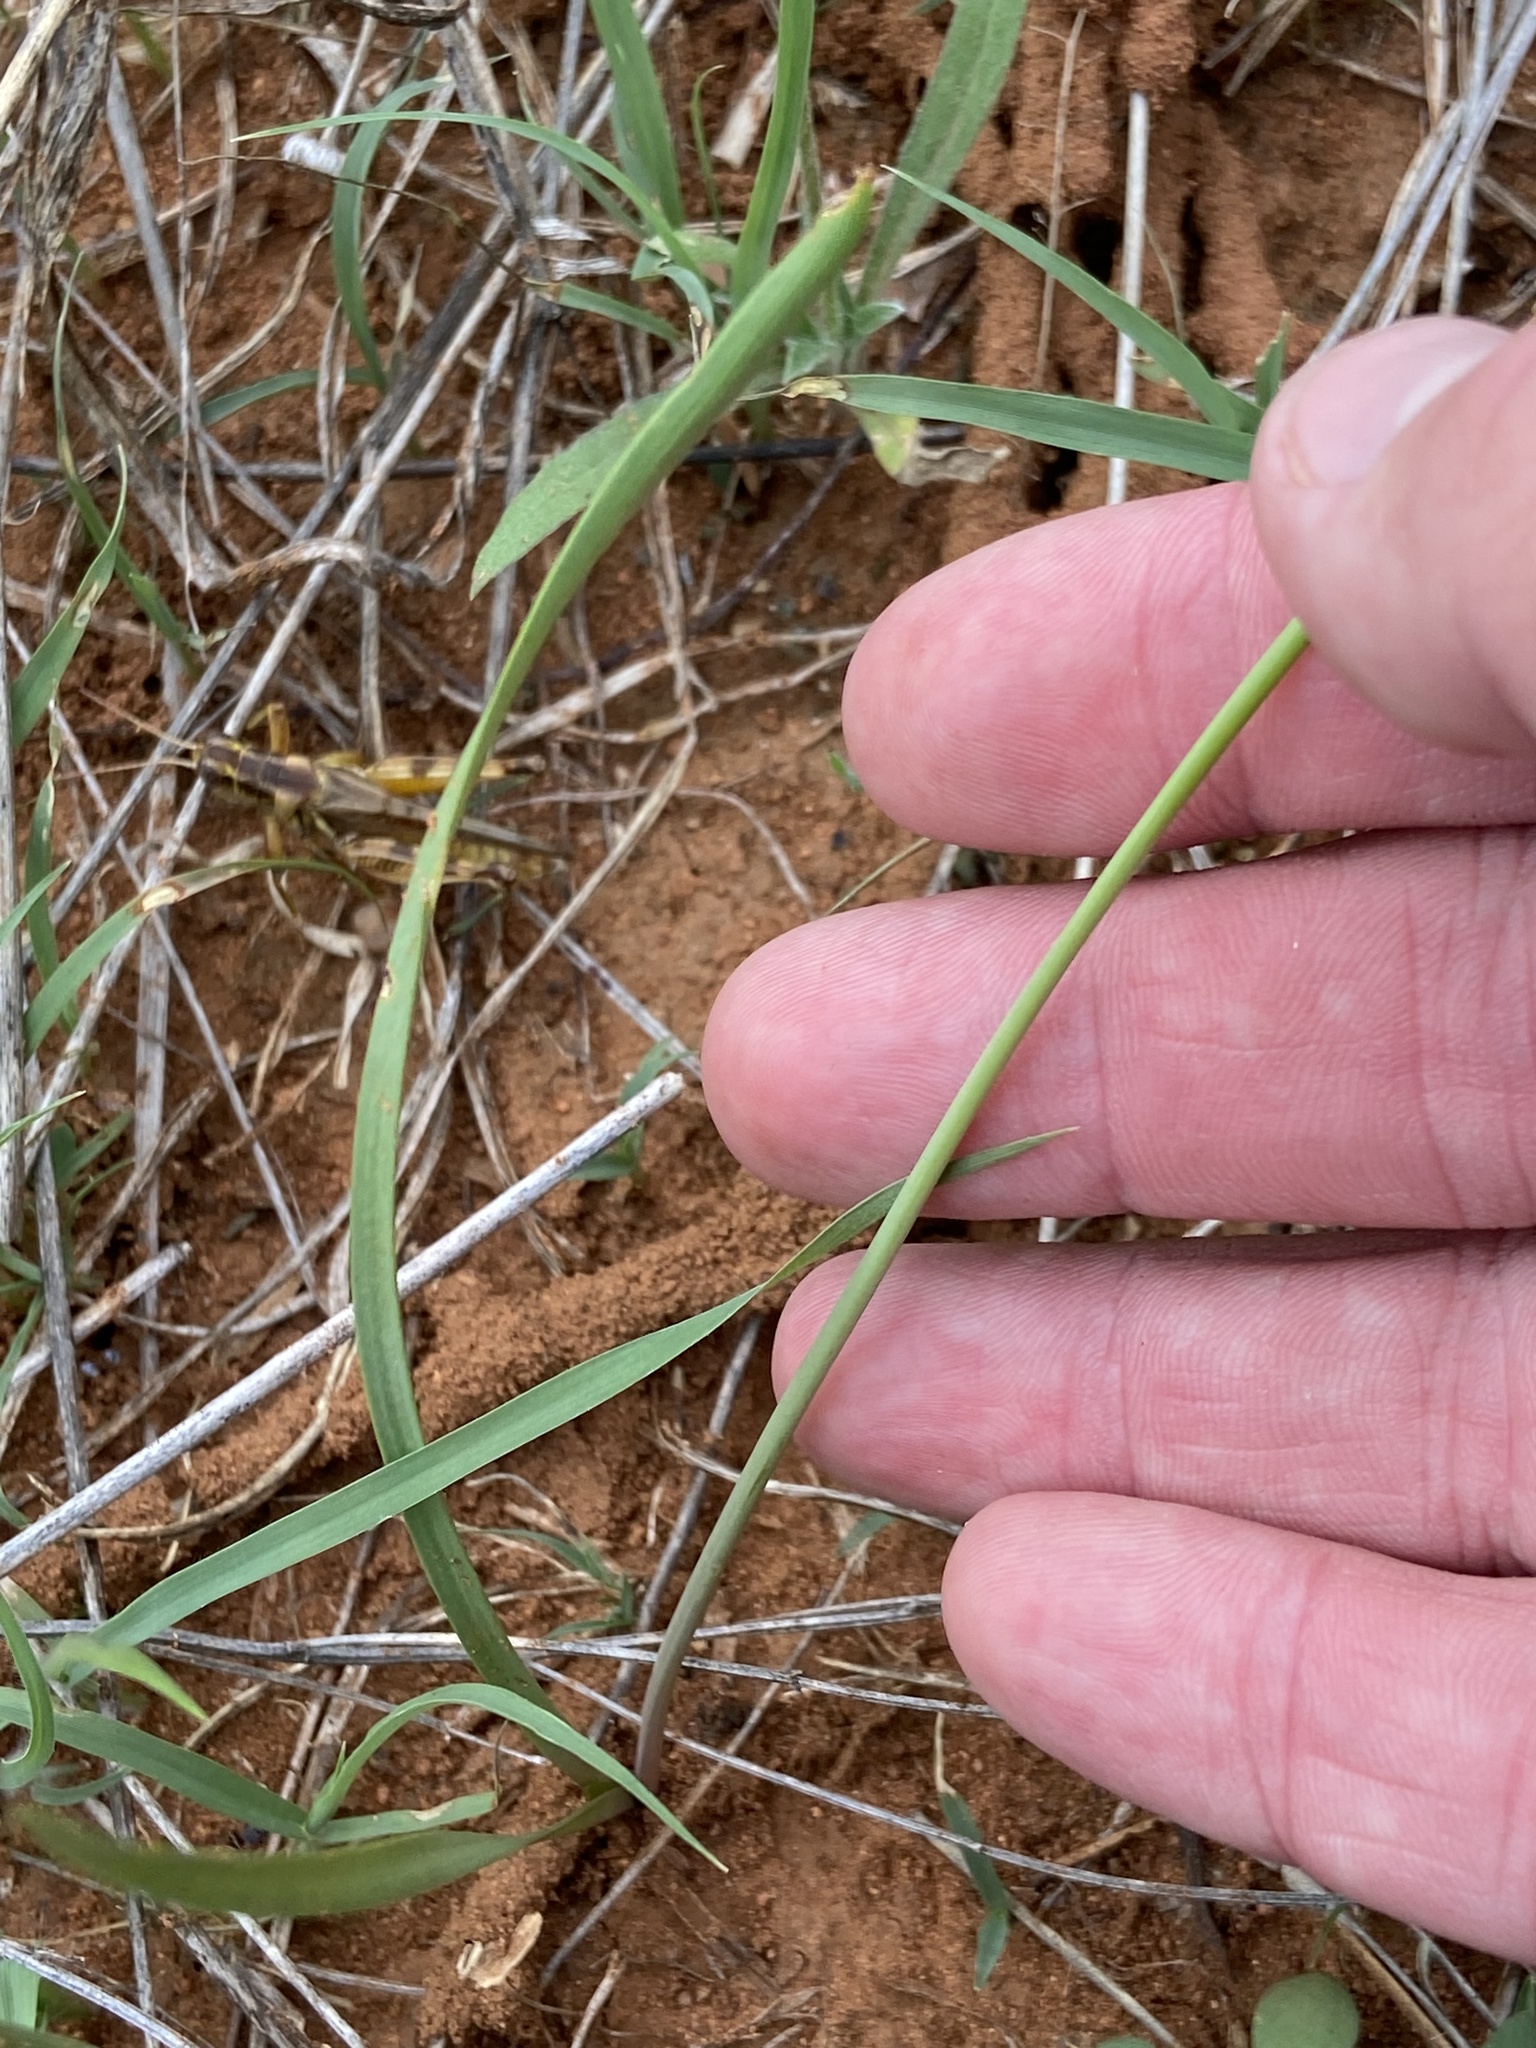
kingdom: Plantae
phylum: Tracheophyta
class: Liliopsida
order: Asparagales
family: Amaryllidaceae
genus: Nothoscordum
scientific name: Nothoscordum bivalve
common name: Crow-poison
